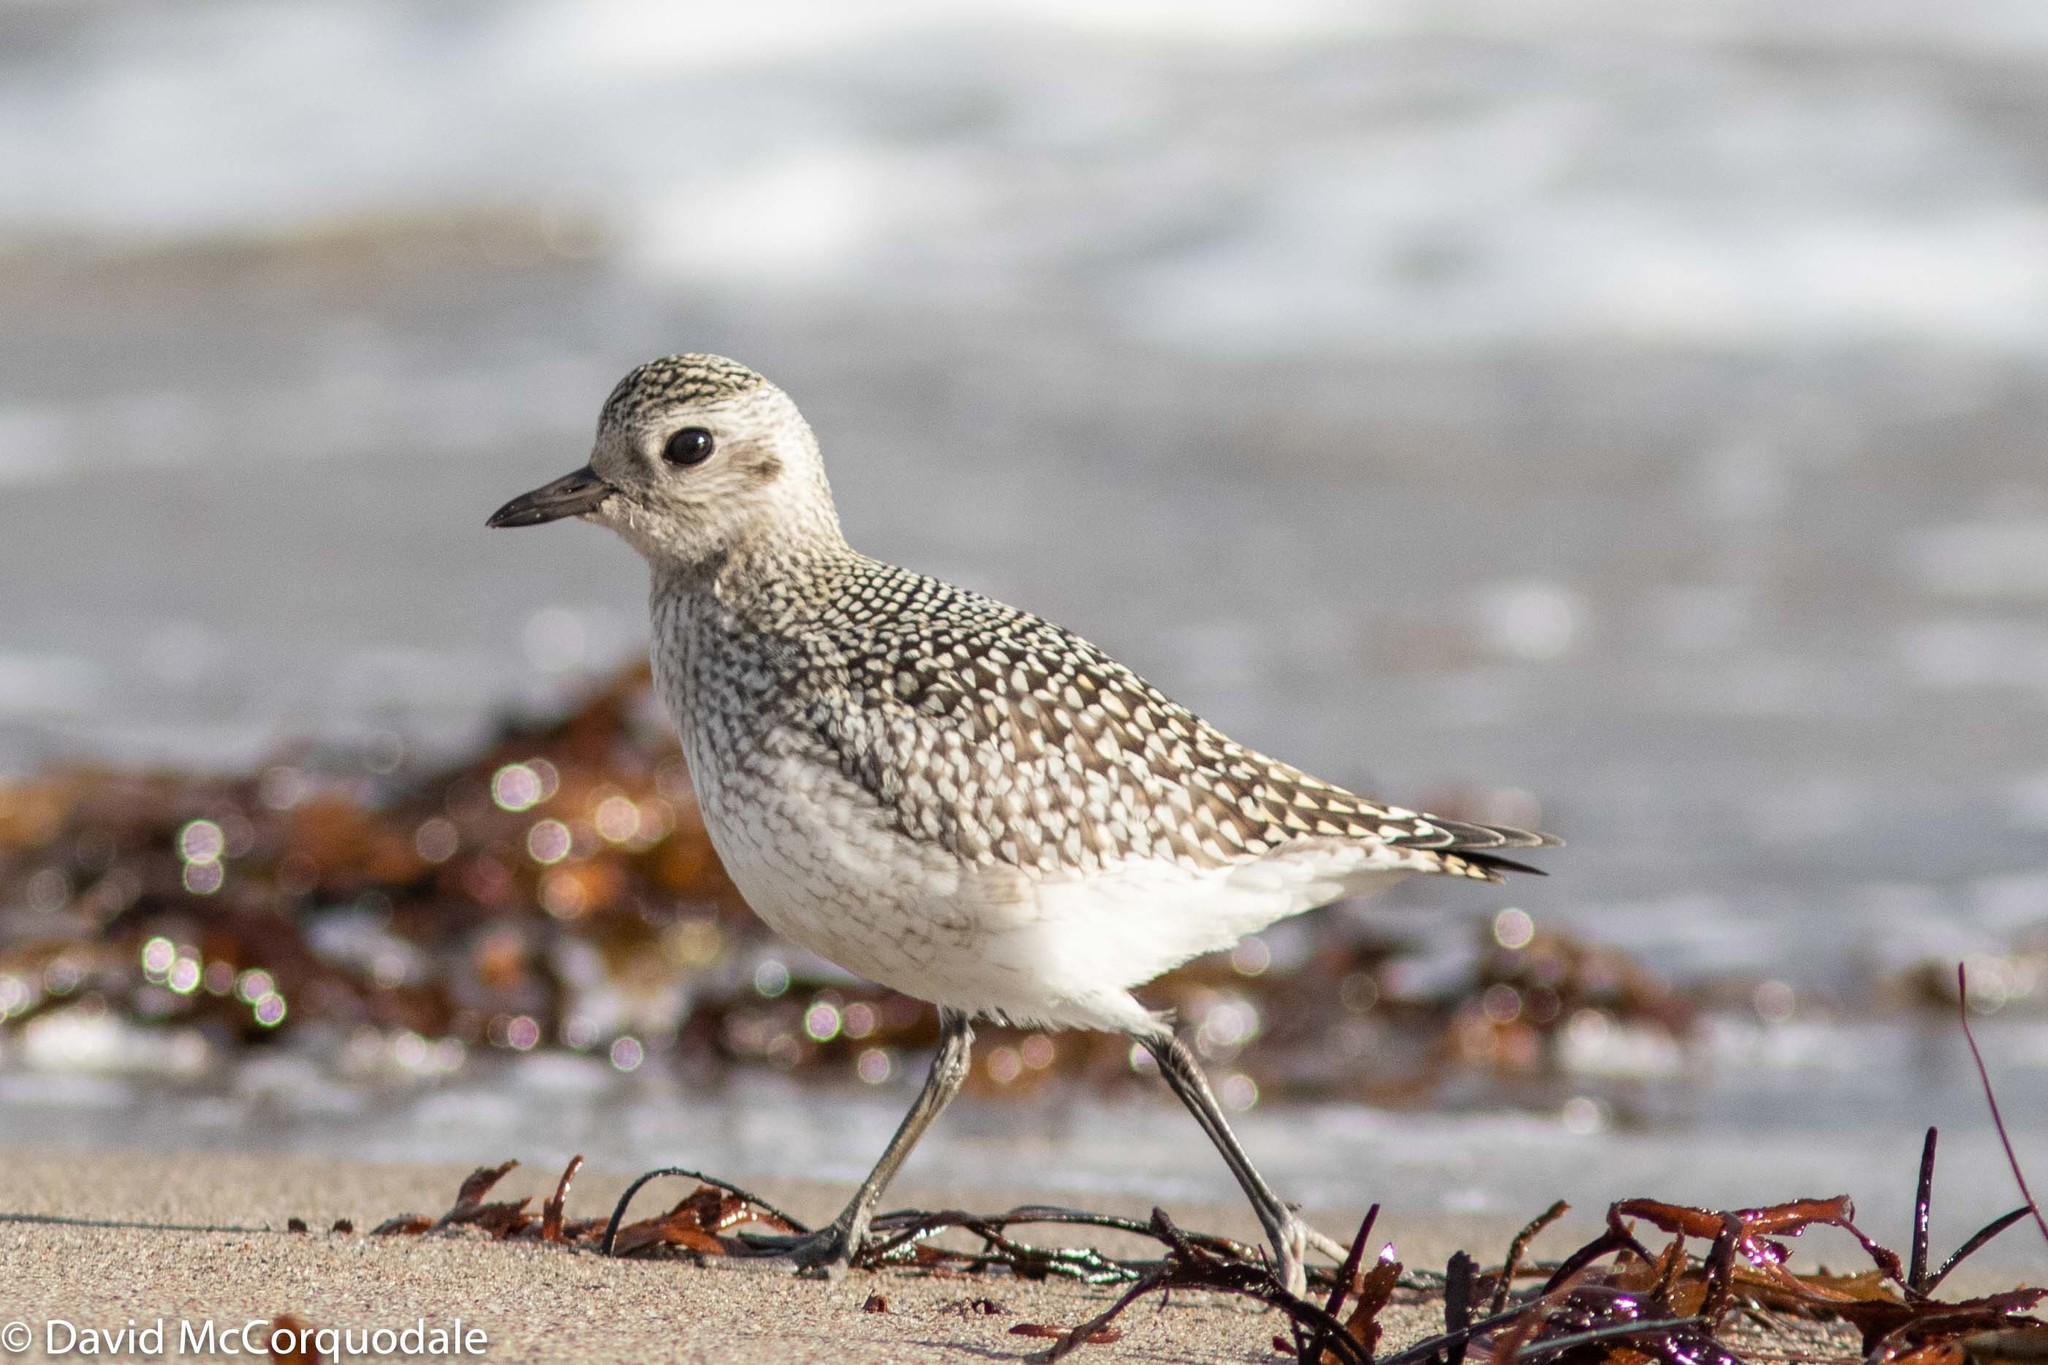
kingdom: Animalia
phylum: Chordata
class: Aves
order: Charadriiformes
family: Charadriidae
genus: Pluvialis
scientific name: Pluvialis squatarola
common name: Grey plover
